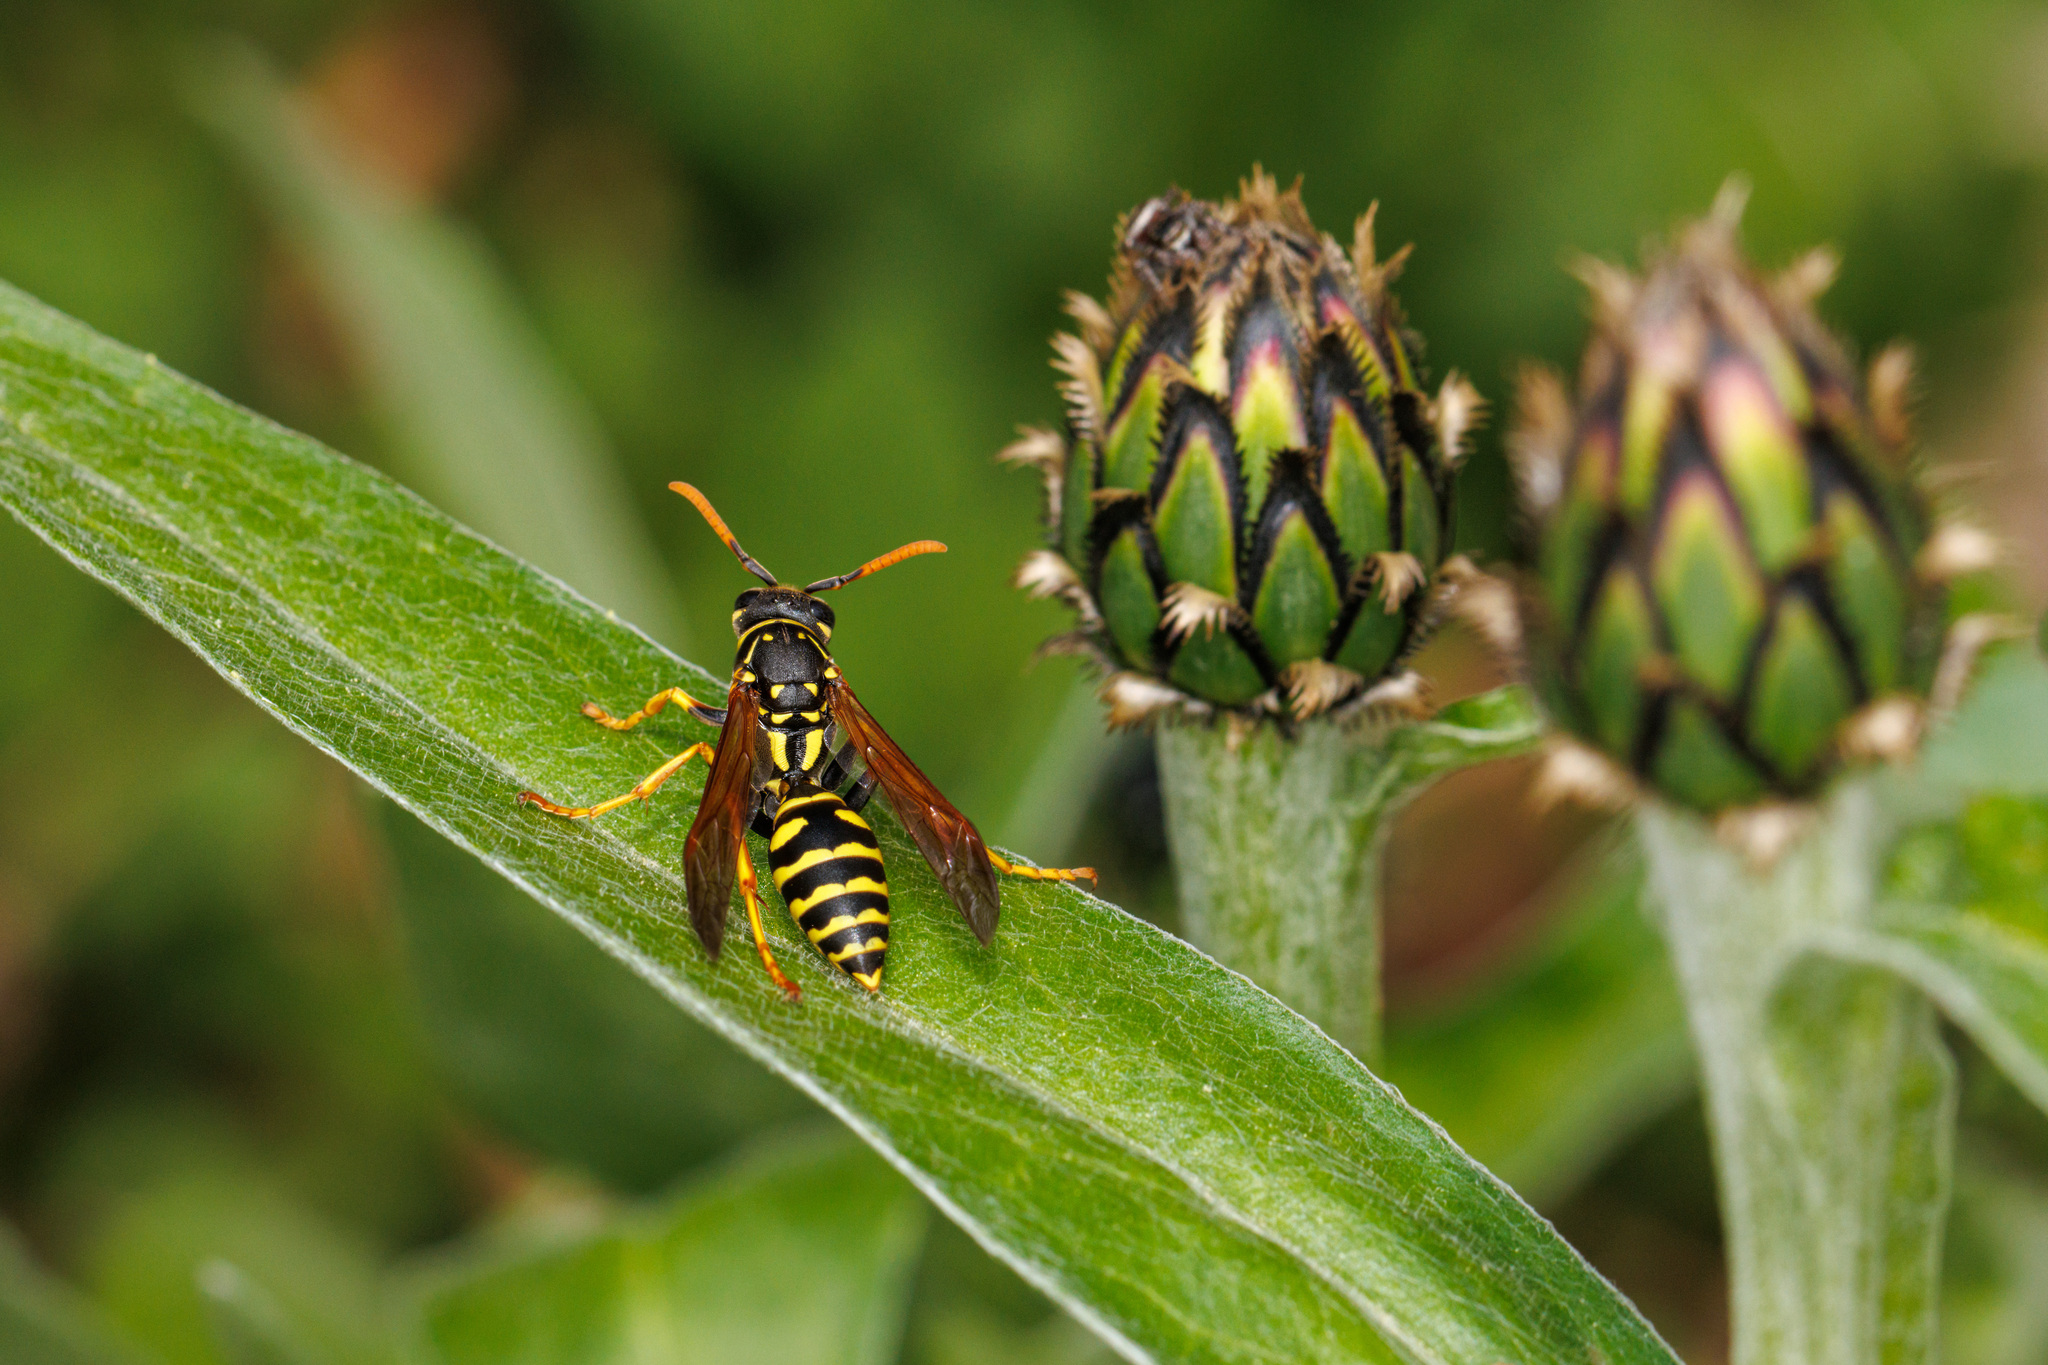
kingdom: Animalia
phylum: Arthropoda
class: Insecta
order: Hymenoptera
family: Eumenidae
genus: Polistes
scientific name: Polistes dominula
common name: Paper wasp
